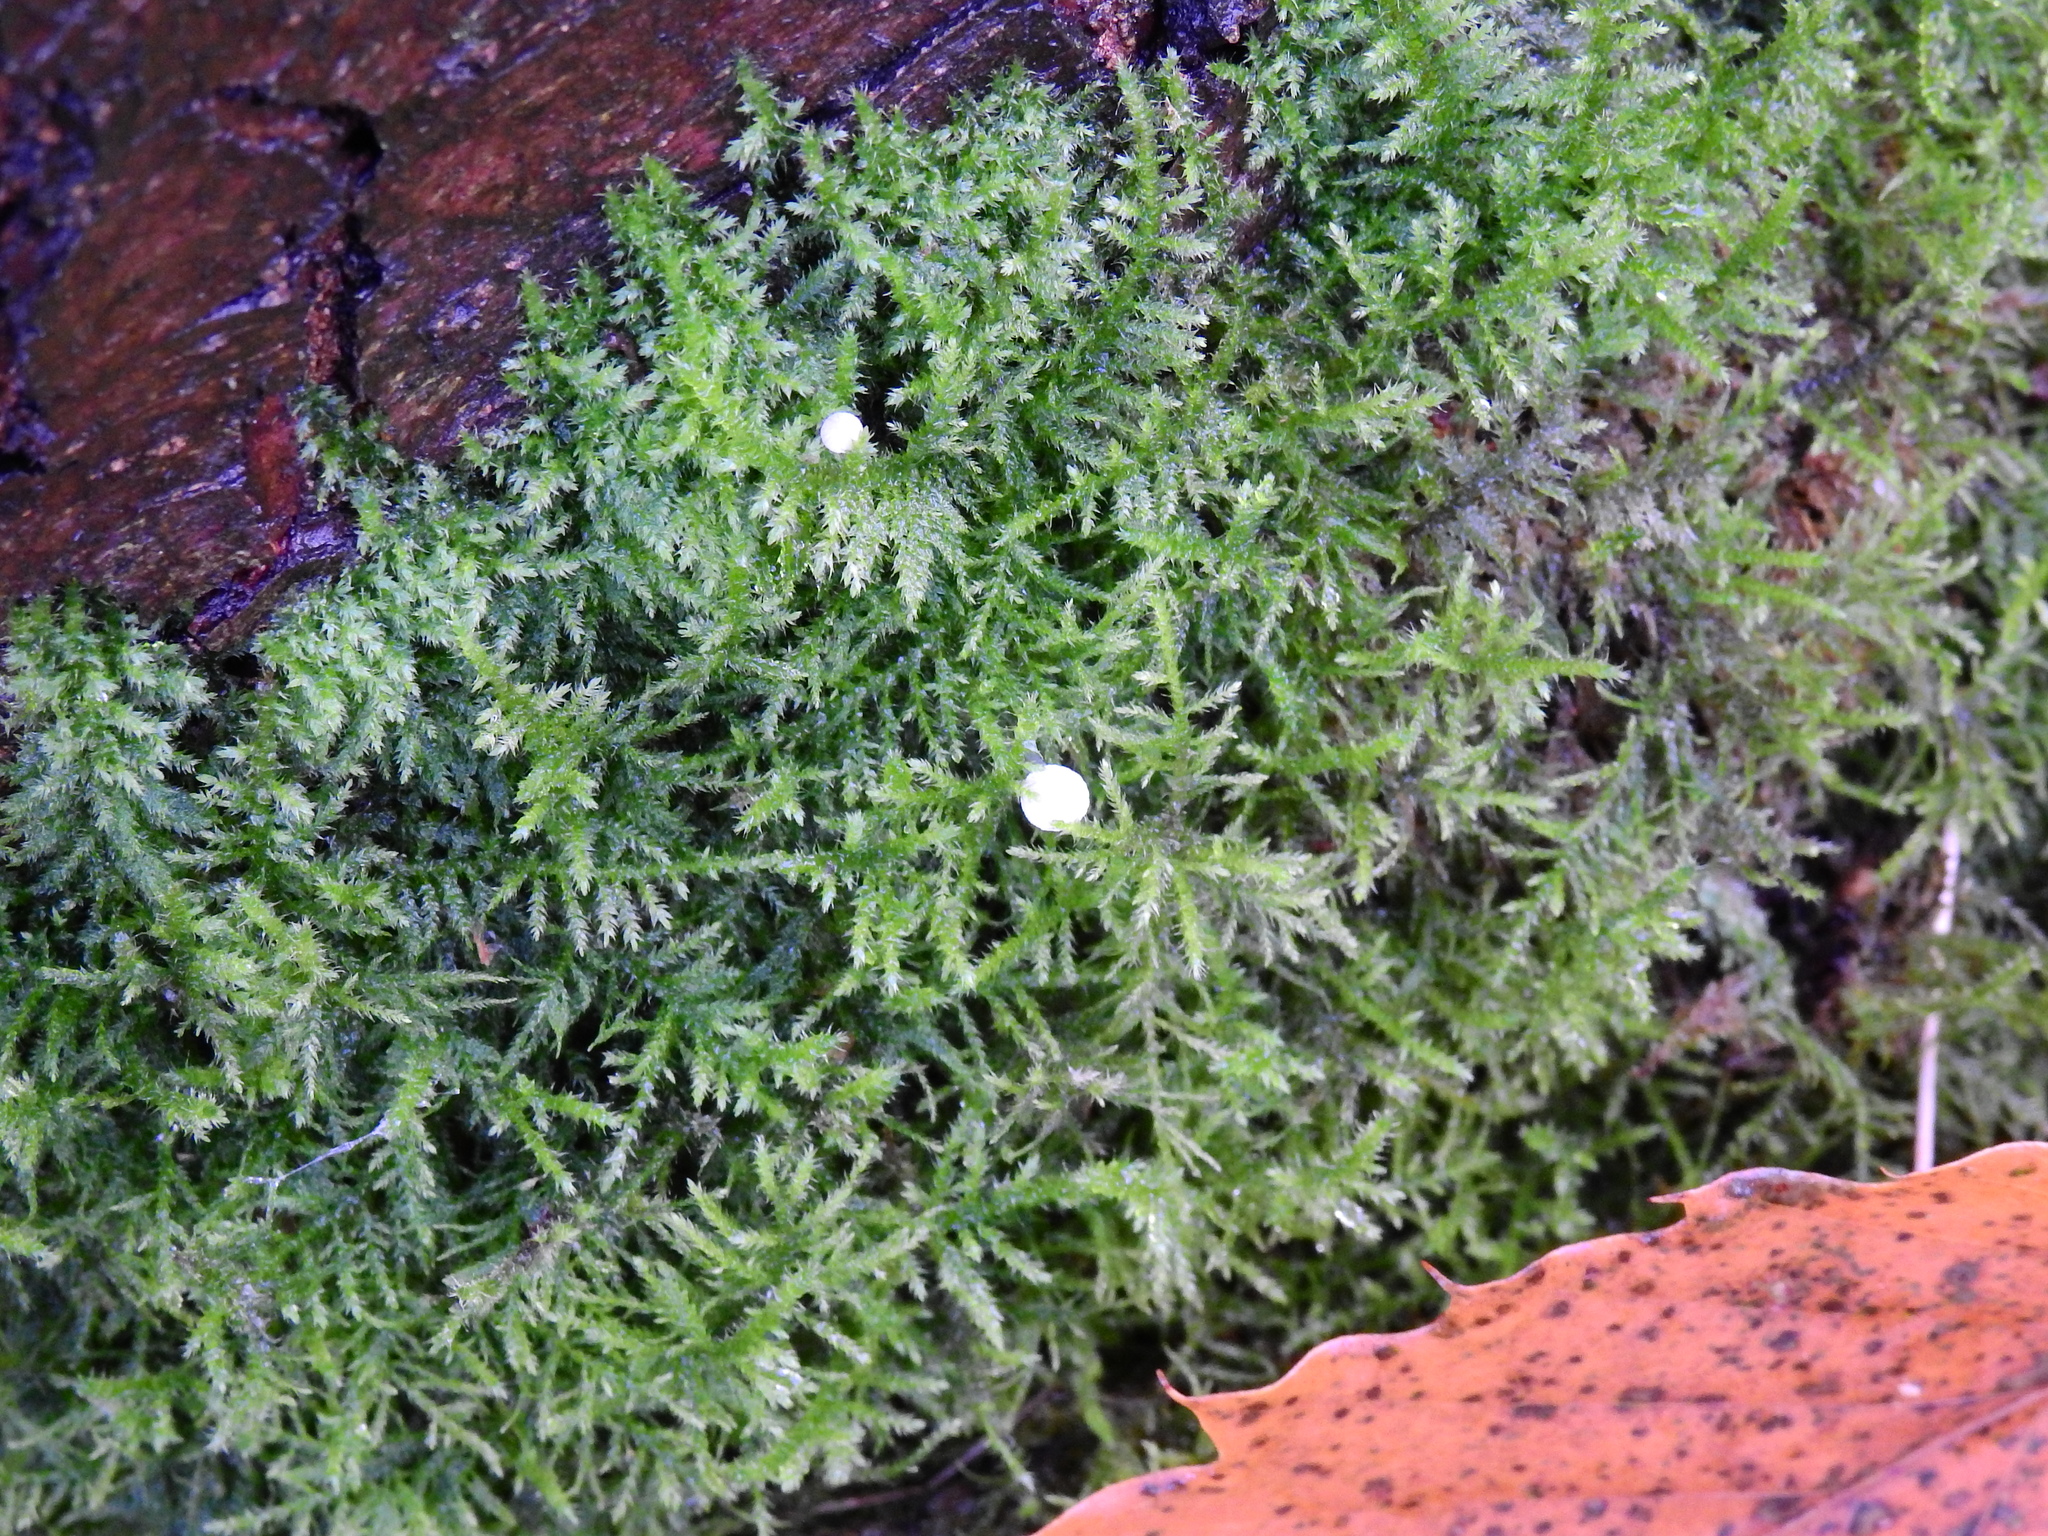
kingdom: Plantae
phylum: Bryophyta
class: Bryopsida
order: Hypnales
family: Brachytheciaceae
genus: Kindbergia
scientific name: Kindbergia praelonga
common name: Slender beaked moss
